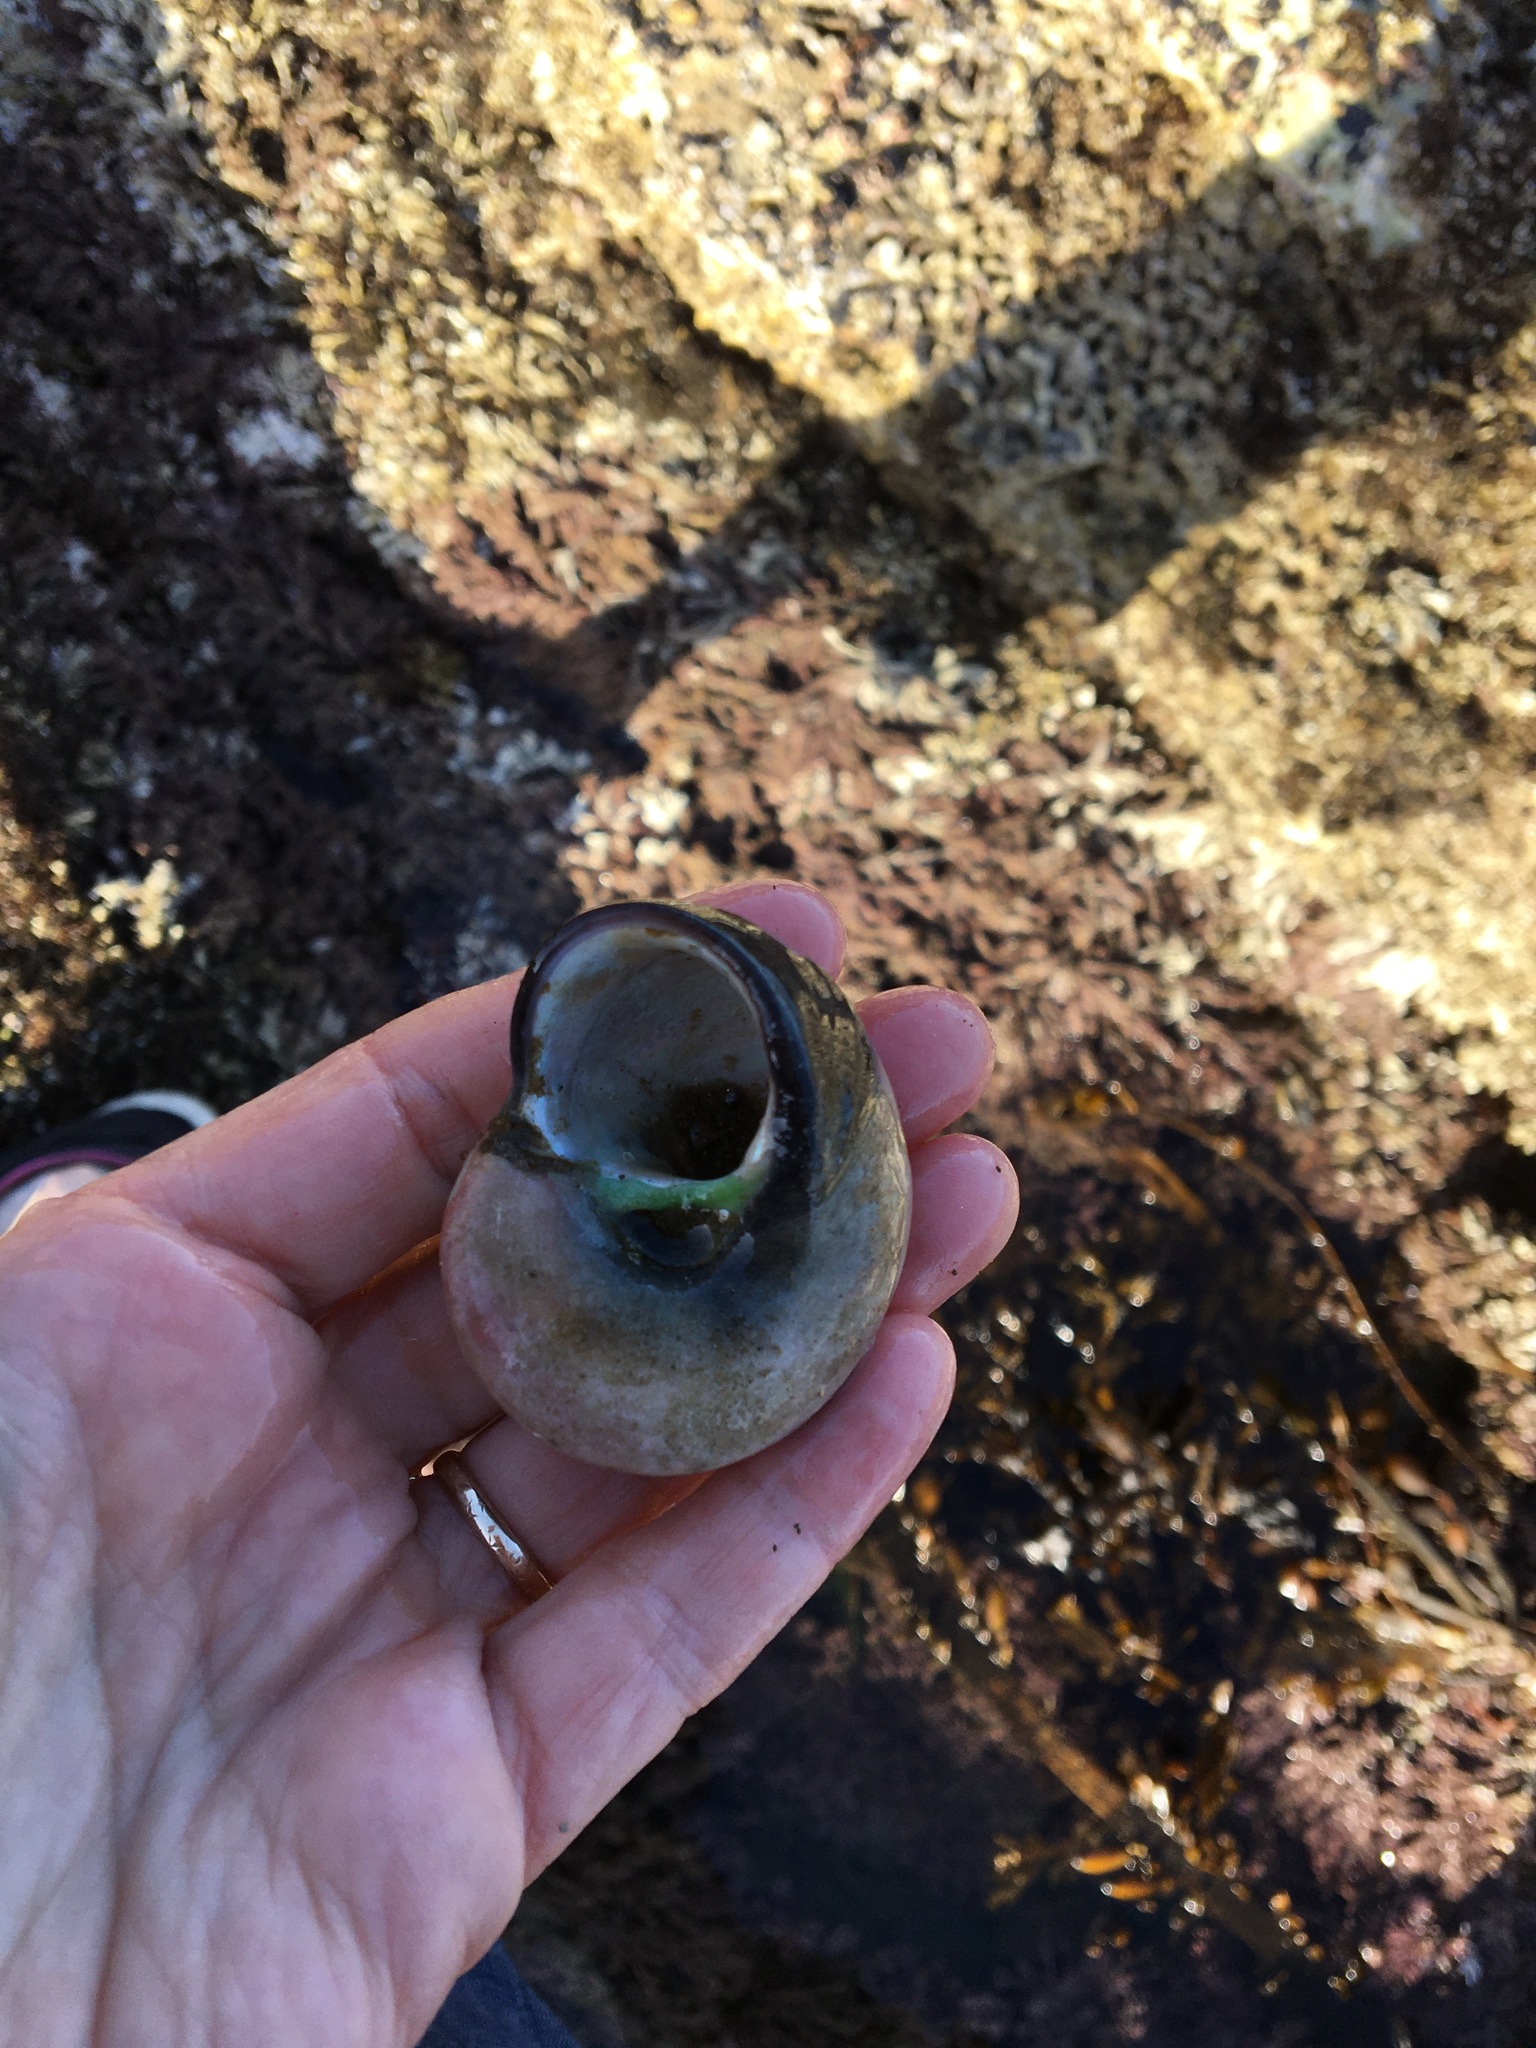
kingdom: Animalia
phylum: Mollusca
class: Gastropoda
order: Trochida
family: Tegulidae
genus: Norrisia
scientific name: Norrisia norrisii
